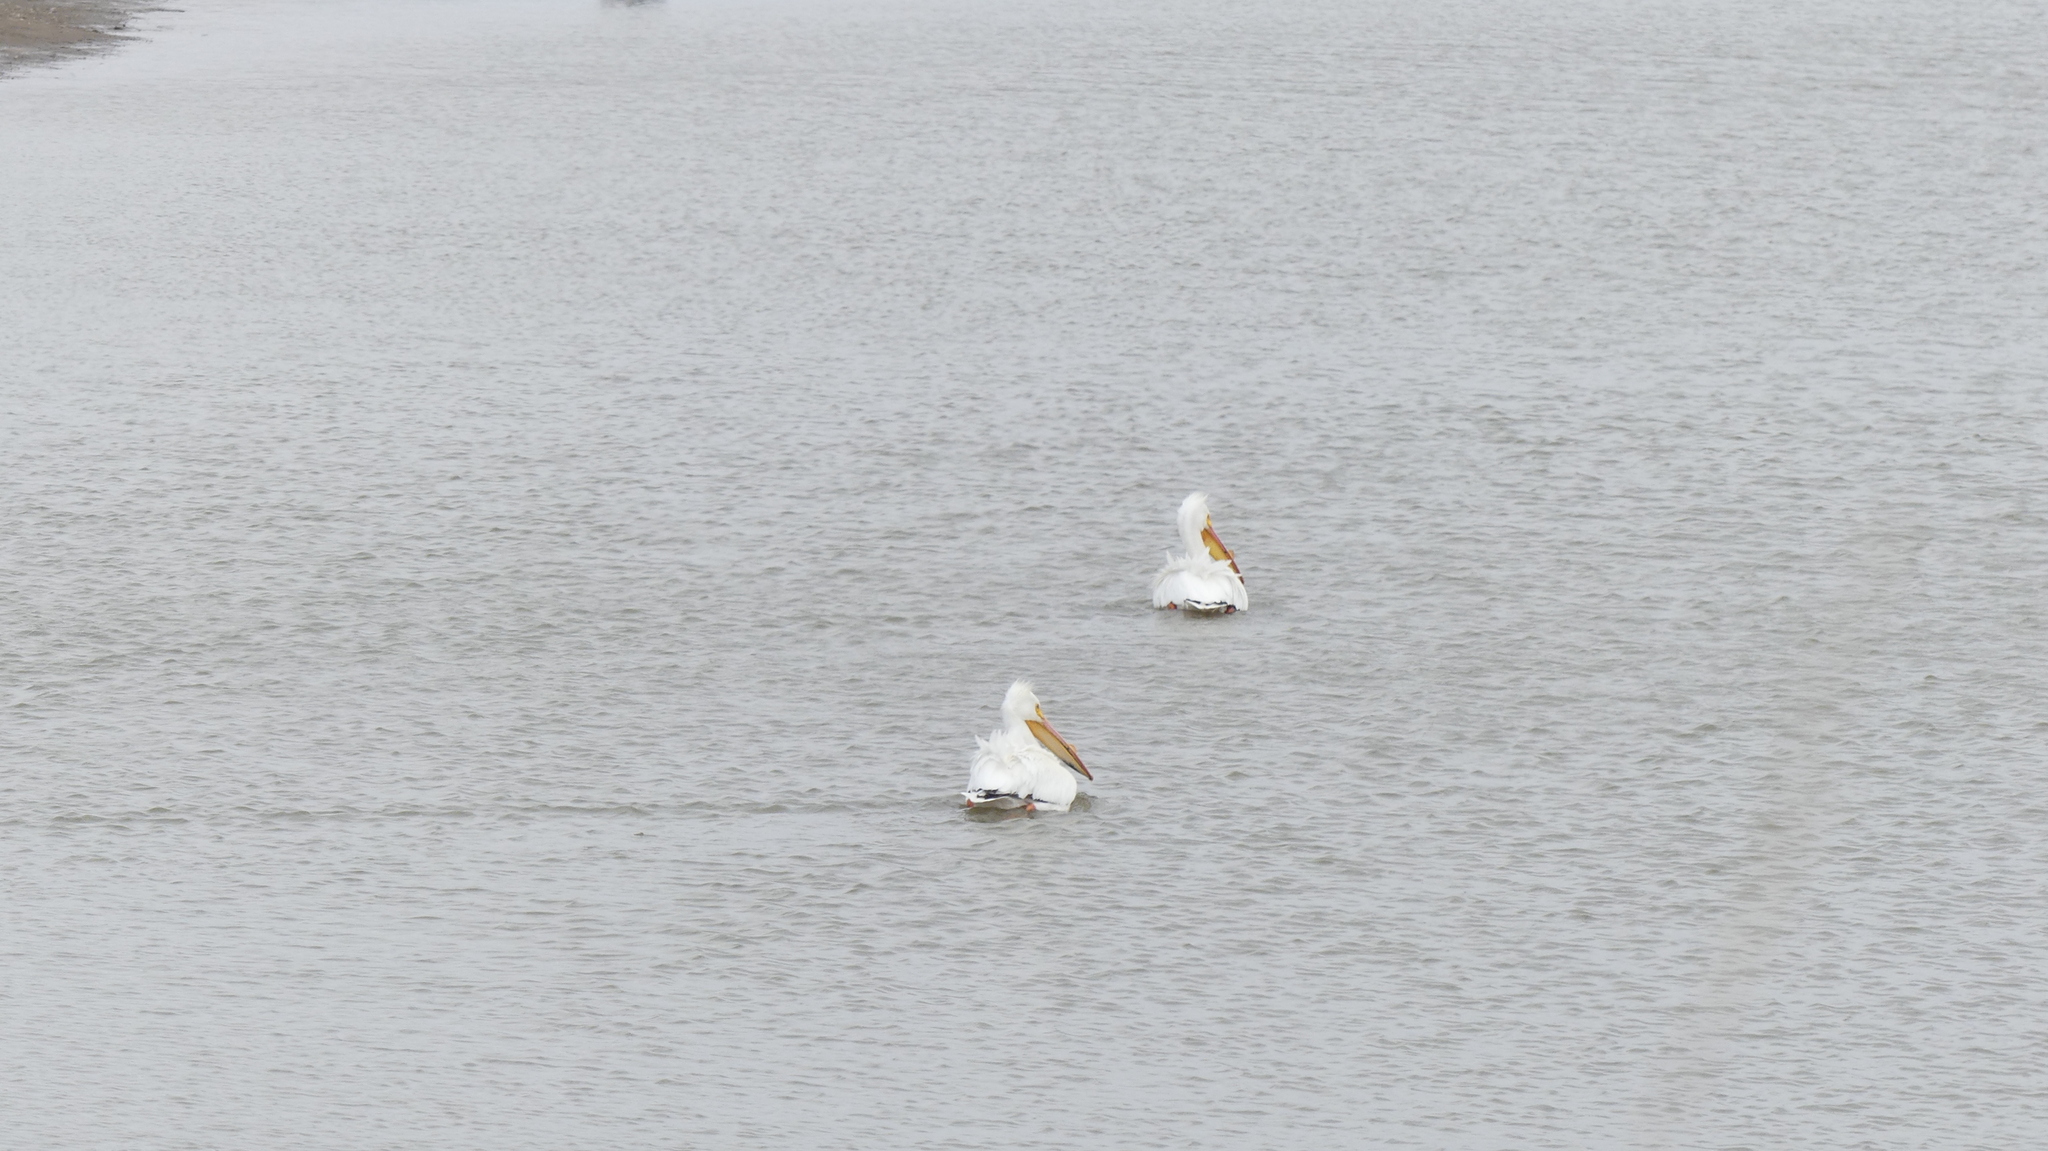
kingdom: Animalia
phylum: Chordata
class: Aves
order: Pelecaniformes
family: Pelecanidae
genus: Pelecanus
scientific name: Pelecanus erythrorhynchos
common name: American white pelican
